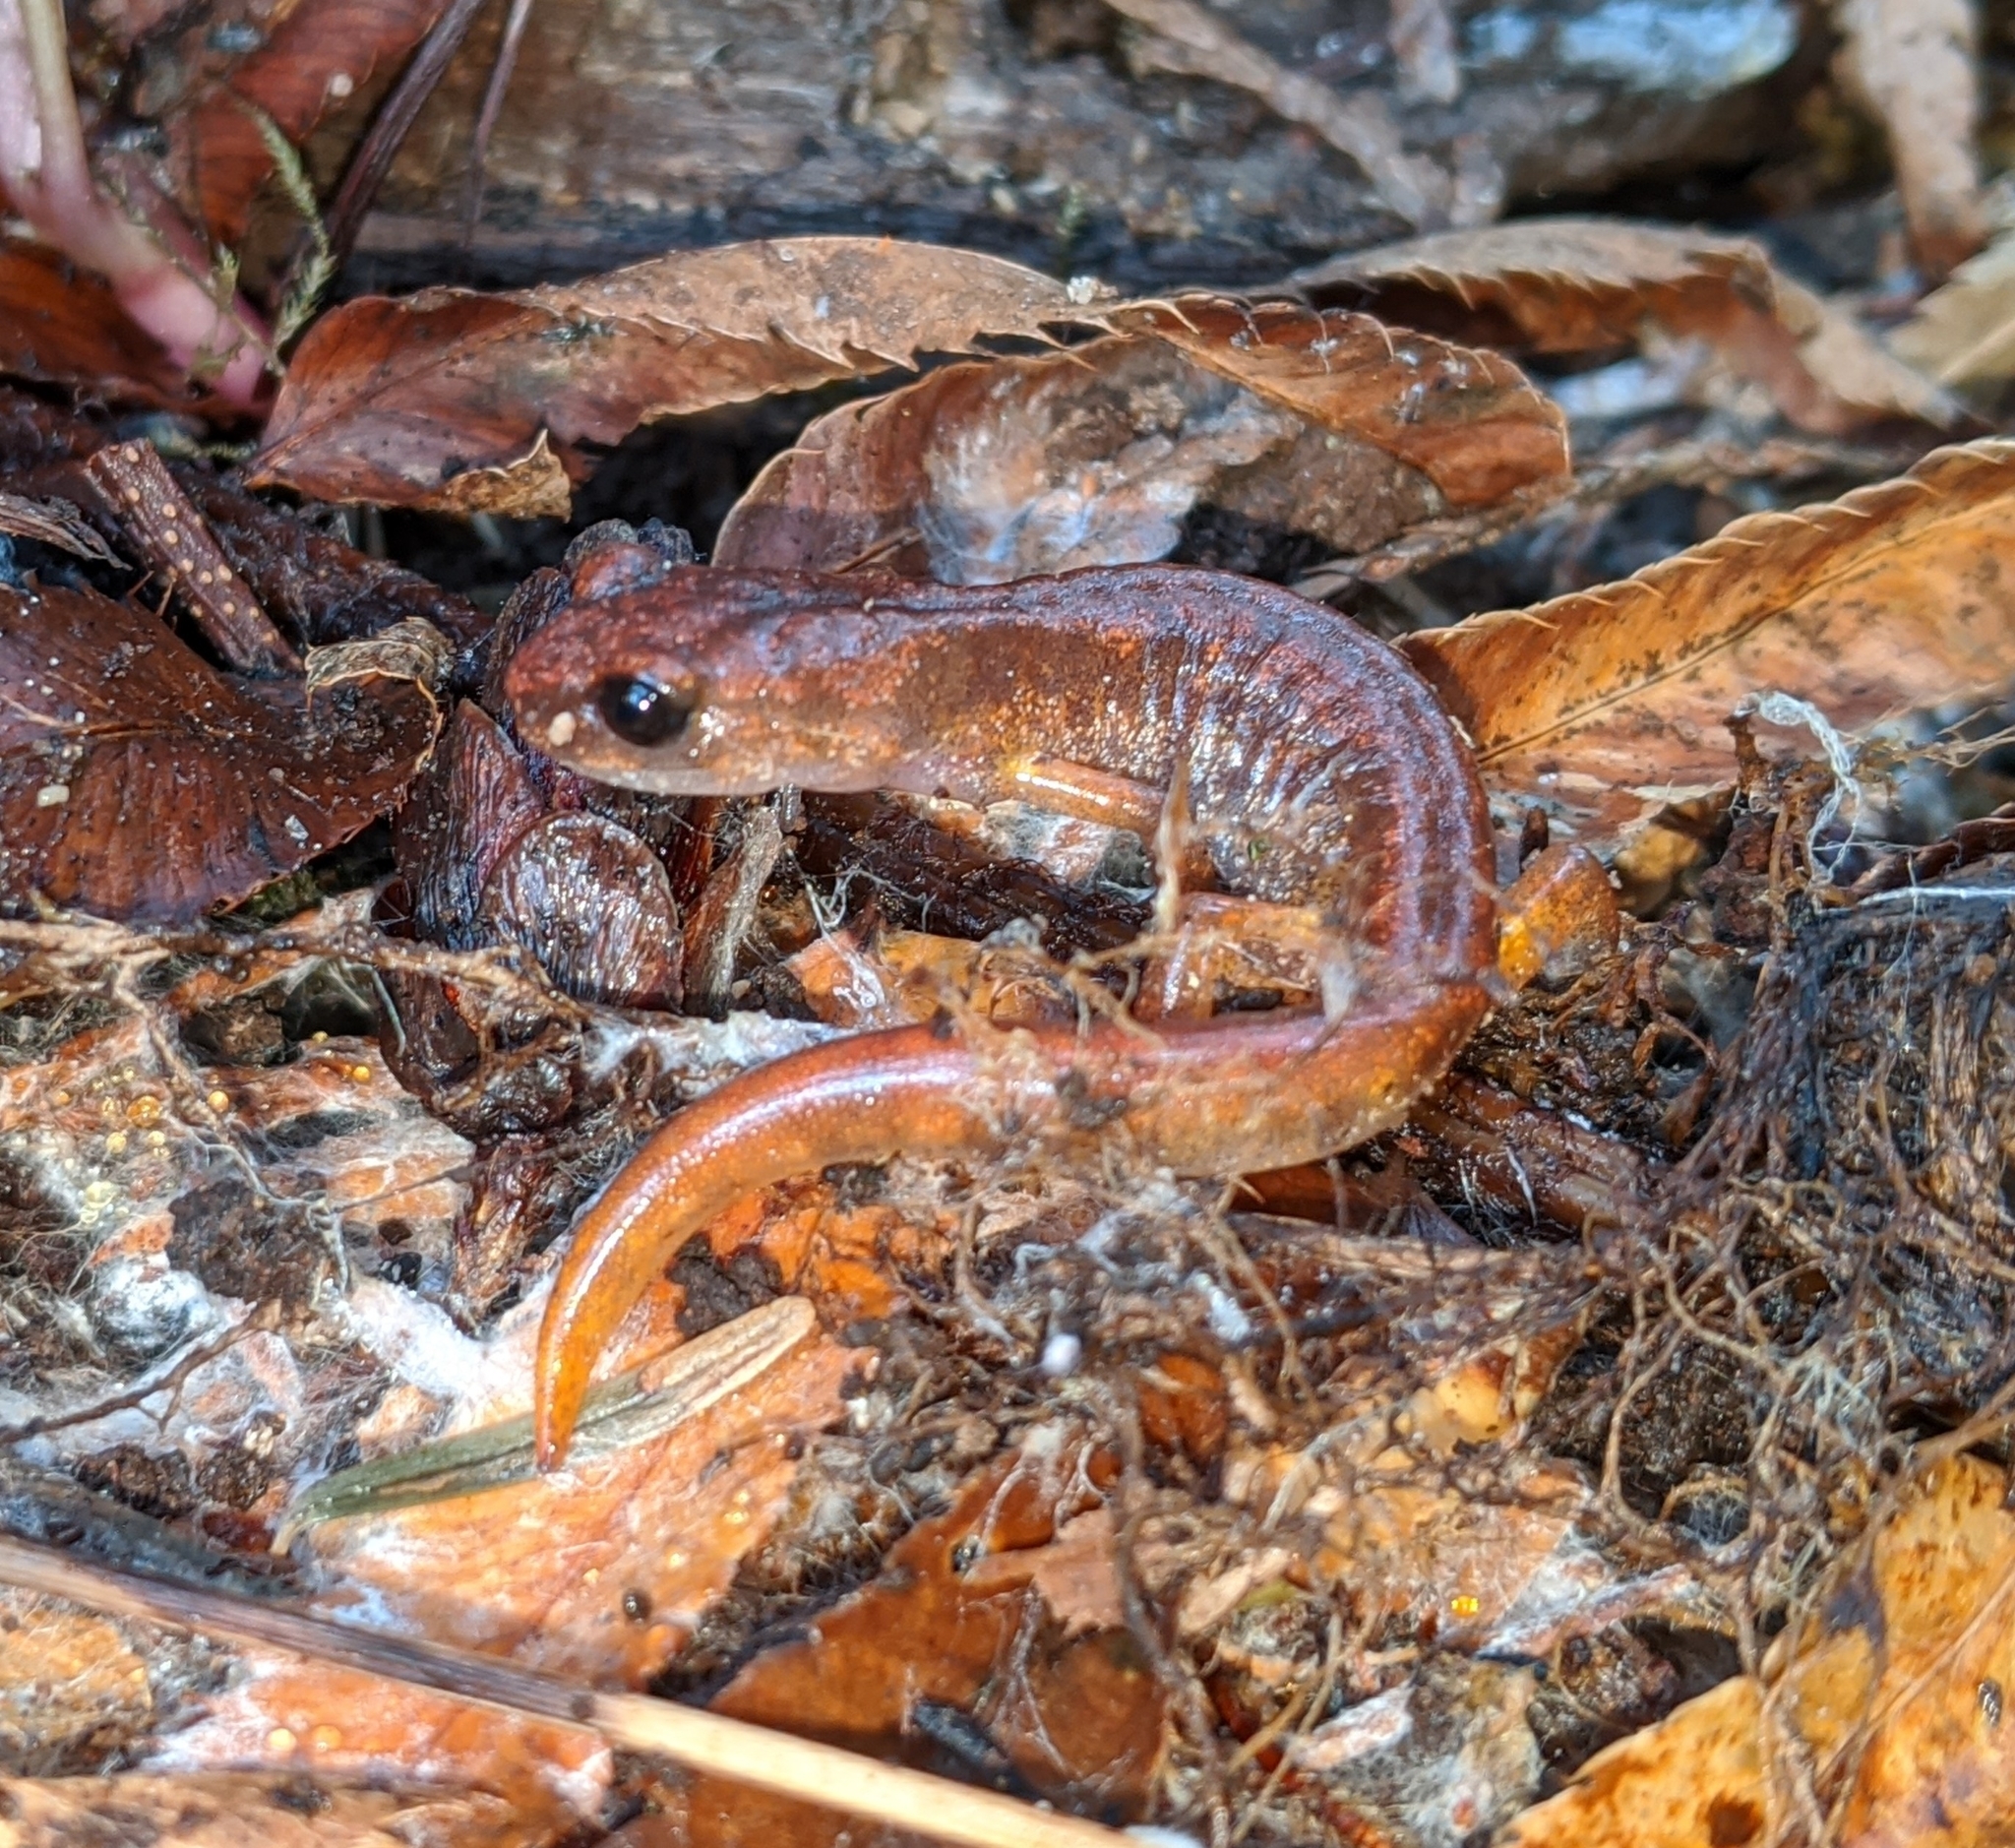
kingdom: Animalia
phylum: Chordata
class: Amphibia
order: Caudata
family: Plethodontidae
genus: Ensatina
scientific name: Ensatina eschscholtzii
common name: Ensatina
